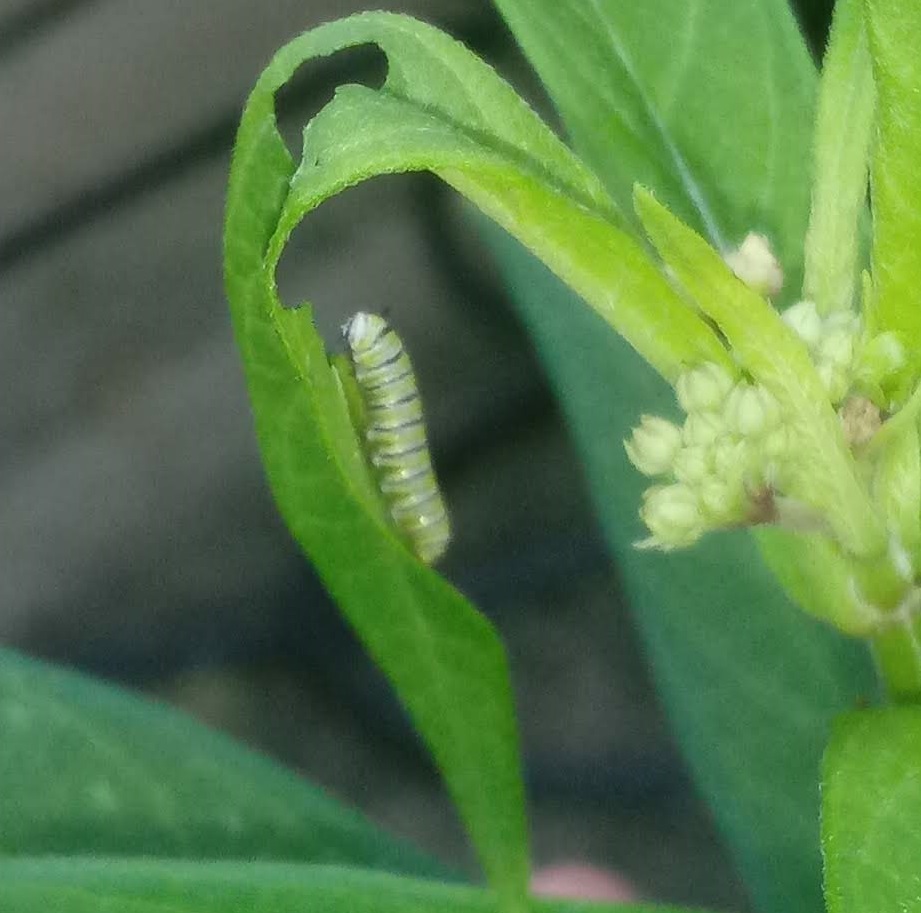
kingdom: Animalia
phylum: Arthropoda
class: Insecta
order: Lepidoptera
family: Nymphalidae
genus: Danaus
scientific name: Danaus plexippus
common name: Monarch
